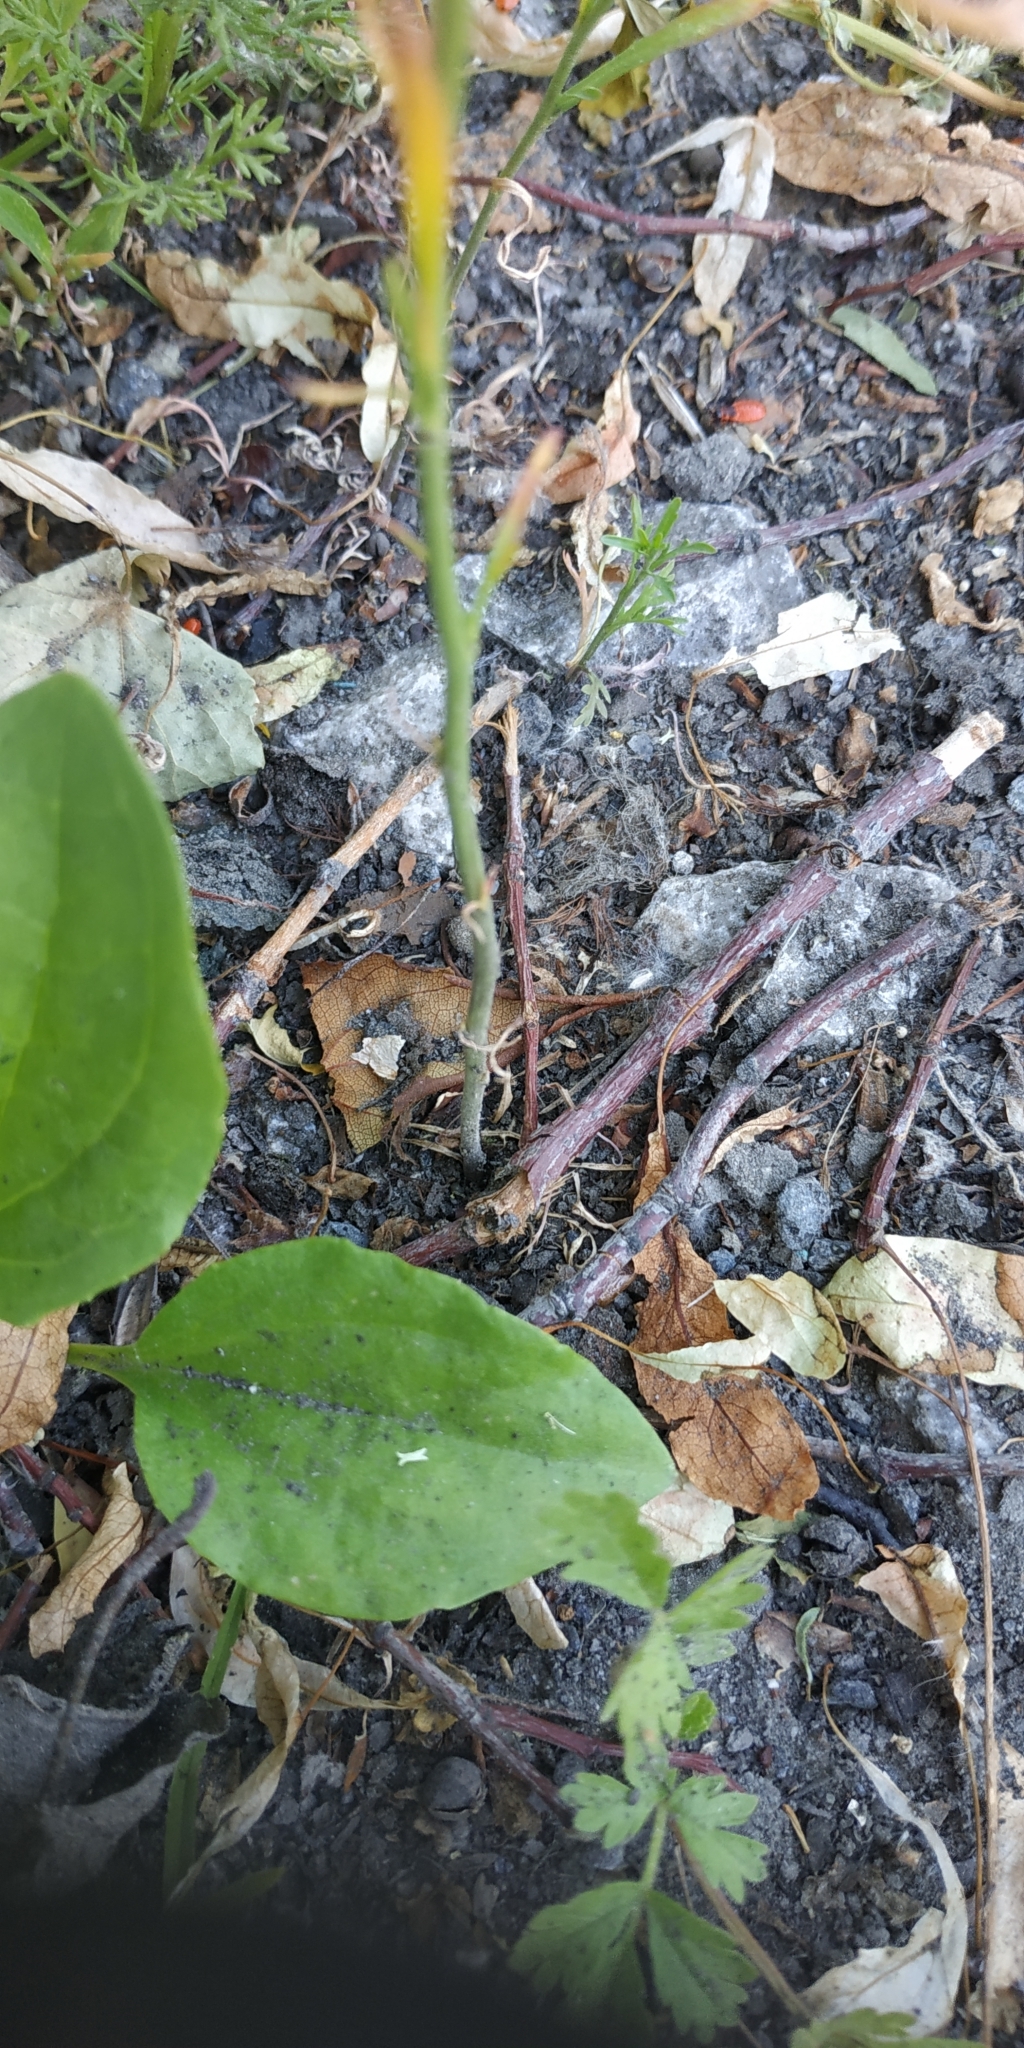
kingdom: Plantae
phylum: Tracheophyta
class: Magnoliopsida
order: Brassicales
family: Brassicaceae
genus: Lepidium
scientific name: Lepidium densiflorum
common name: Miner's pepperwort
